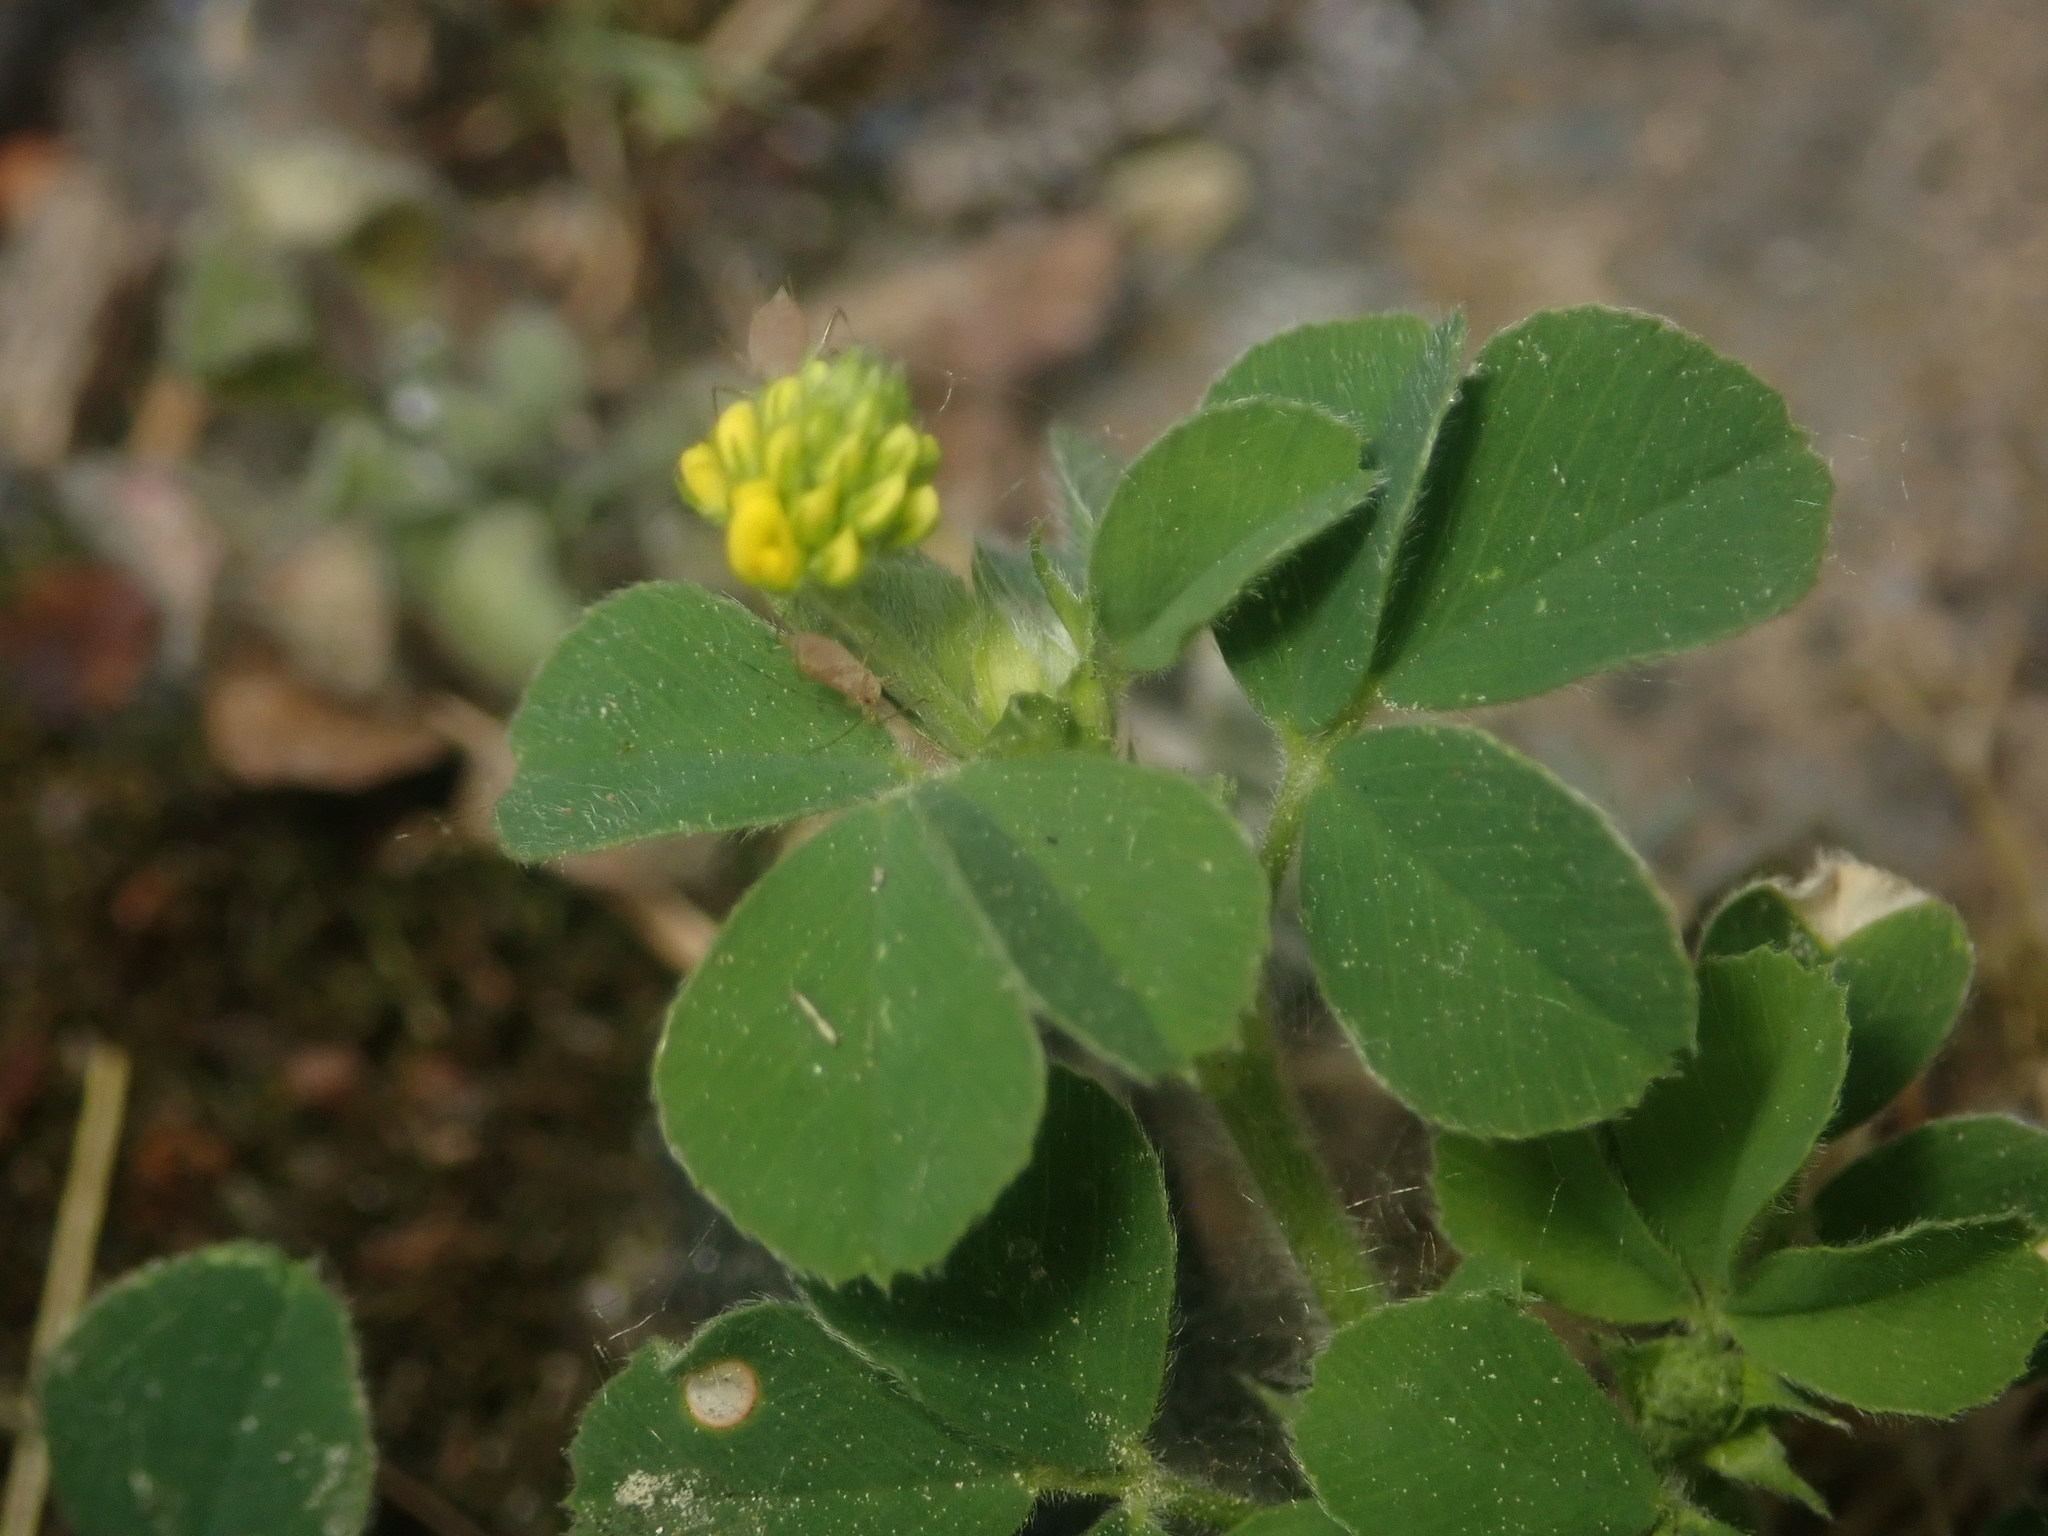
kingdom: Plantae
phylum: Tracheophyta
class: Magnoliopsida
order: Fabales
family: Fabaceae
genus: Medicago
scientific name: Medicago lupulina
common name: Black medick
